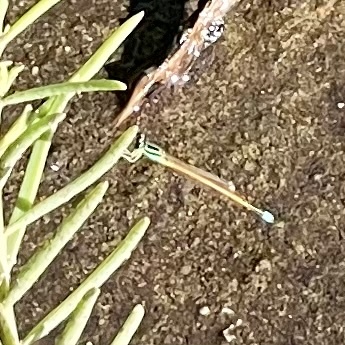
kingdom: Animalia
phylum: Arthropoda
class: Insecta
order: Odonata
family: Coenagrionidae
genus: Ischnura
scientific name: Ischnura aurora
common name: Gossamer damselfly
